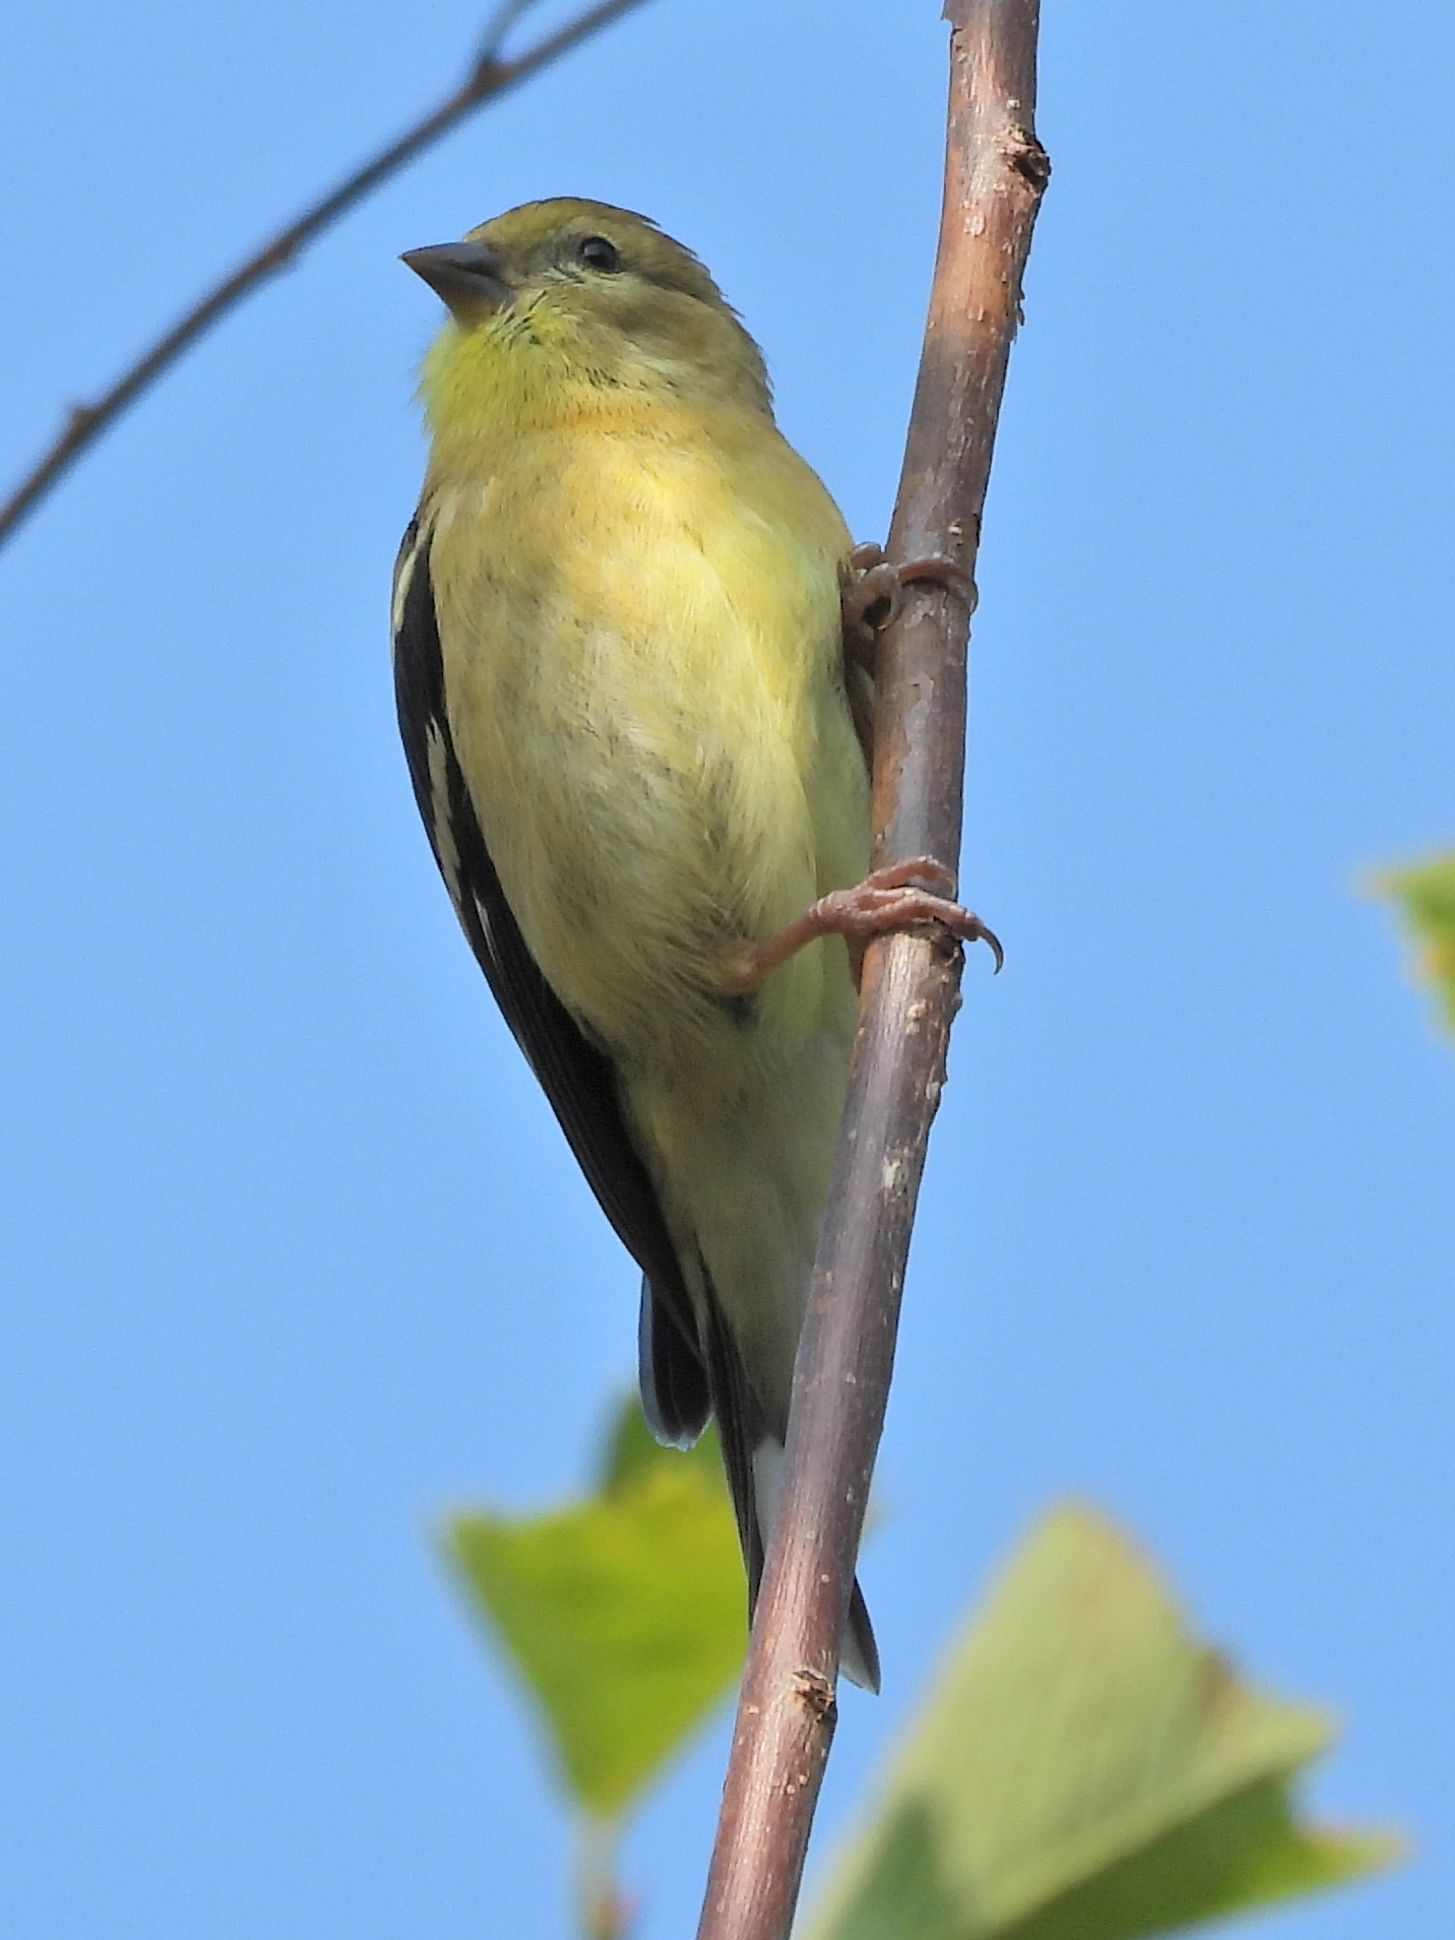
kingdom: Animalia
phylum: Chordata
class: Aves
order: Passeriformes
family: Fringillidae
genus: Spinus
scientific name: Spinus tristis
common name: American goldfinch
